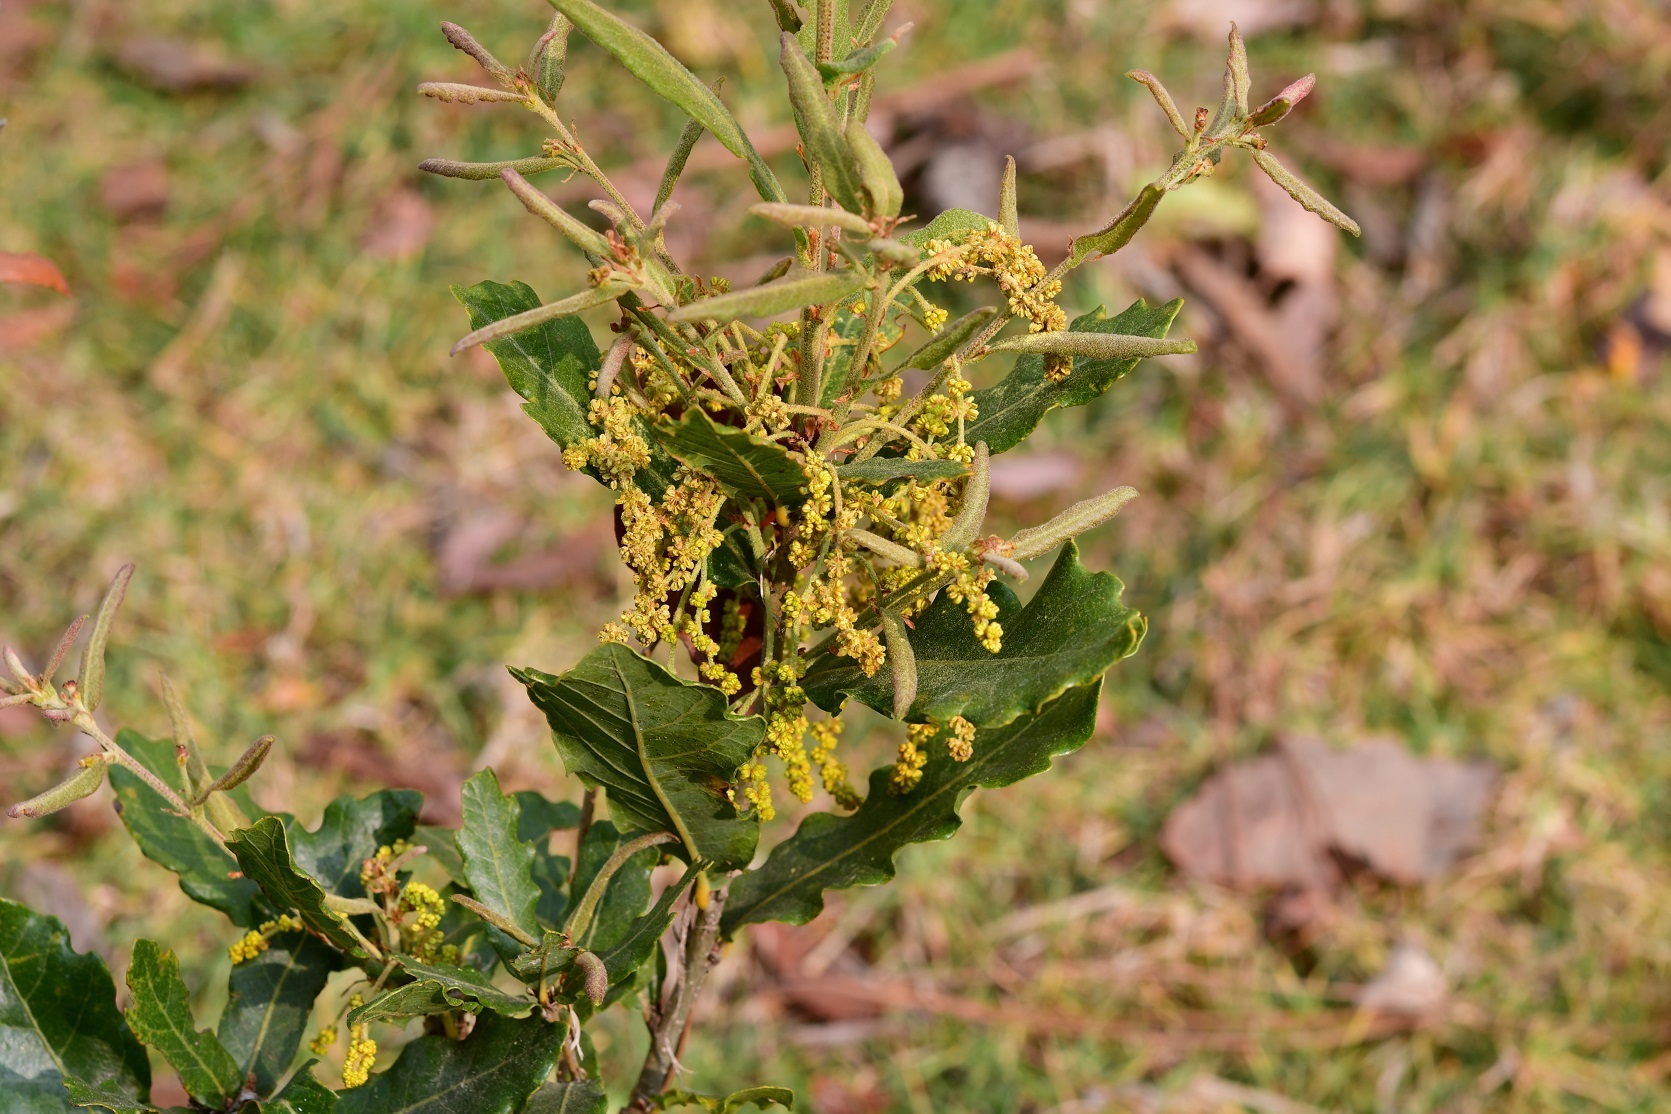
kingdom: Plantae
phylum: Tracheophyta
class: Magnoliopsida
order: Fagales
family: Fagaceae
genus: Quercus
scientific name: Quercus sebifera
